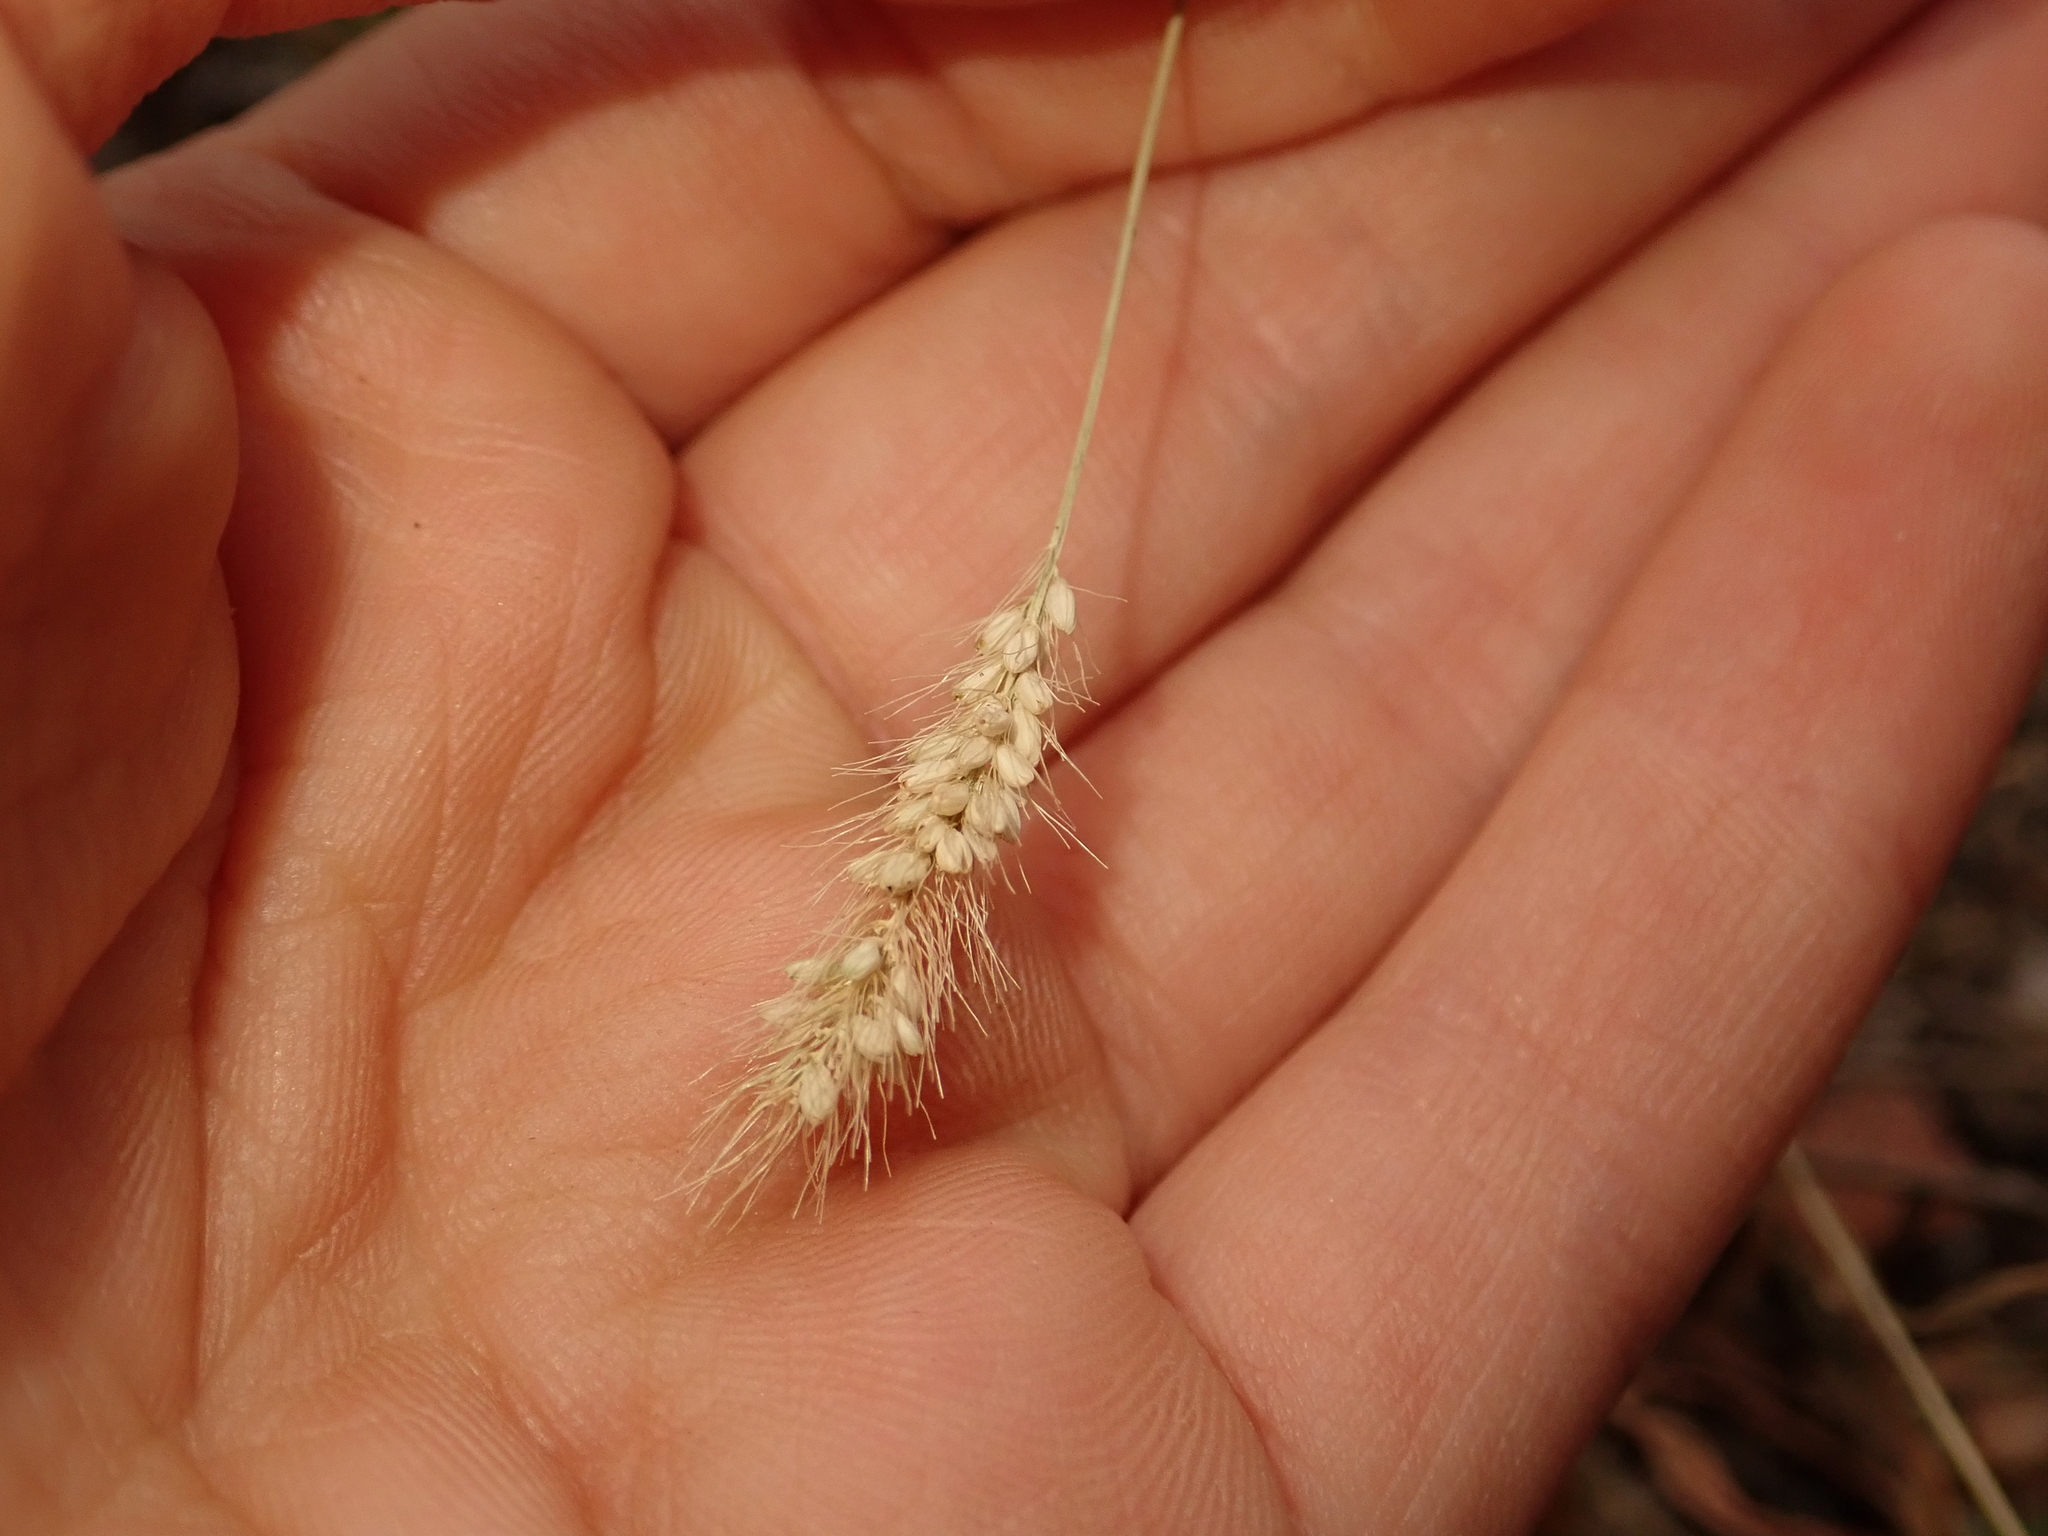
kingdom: Plantae
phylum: Tracheophyta
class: Liliopsida
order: Poales
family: Poaceae
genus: Setaria
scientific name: Setaria viridis
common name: Green bristlegrass
